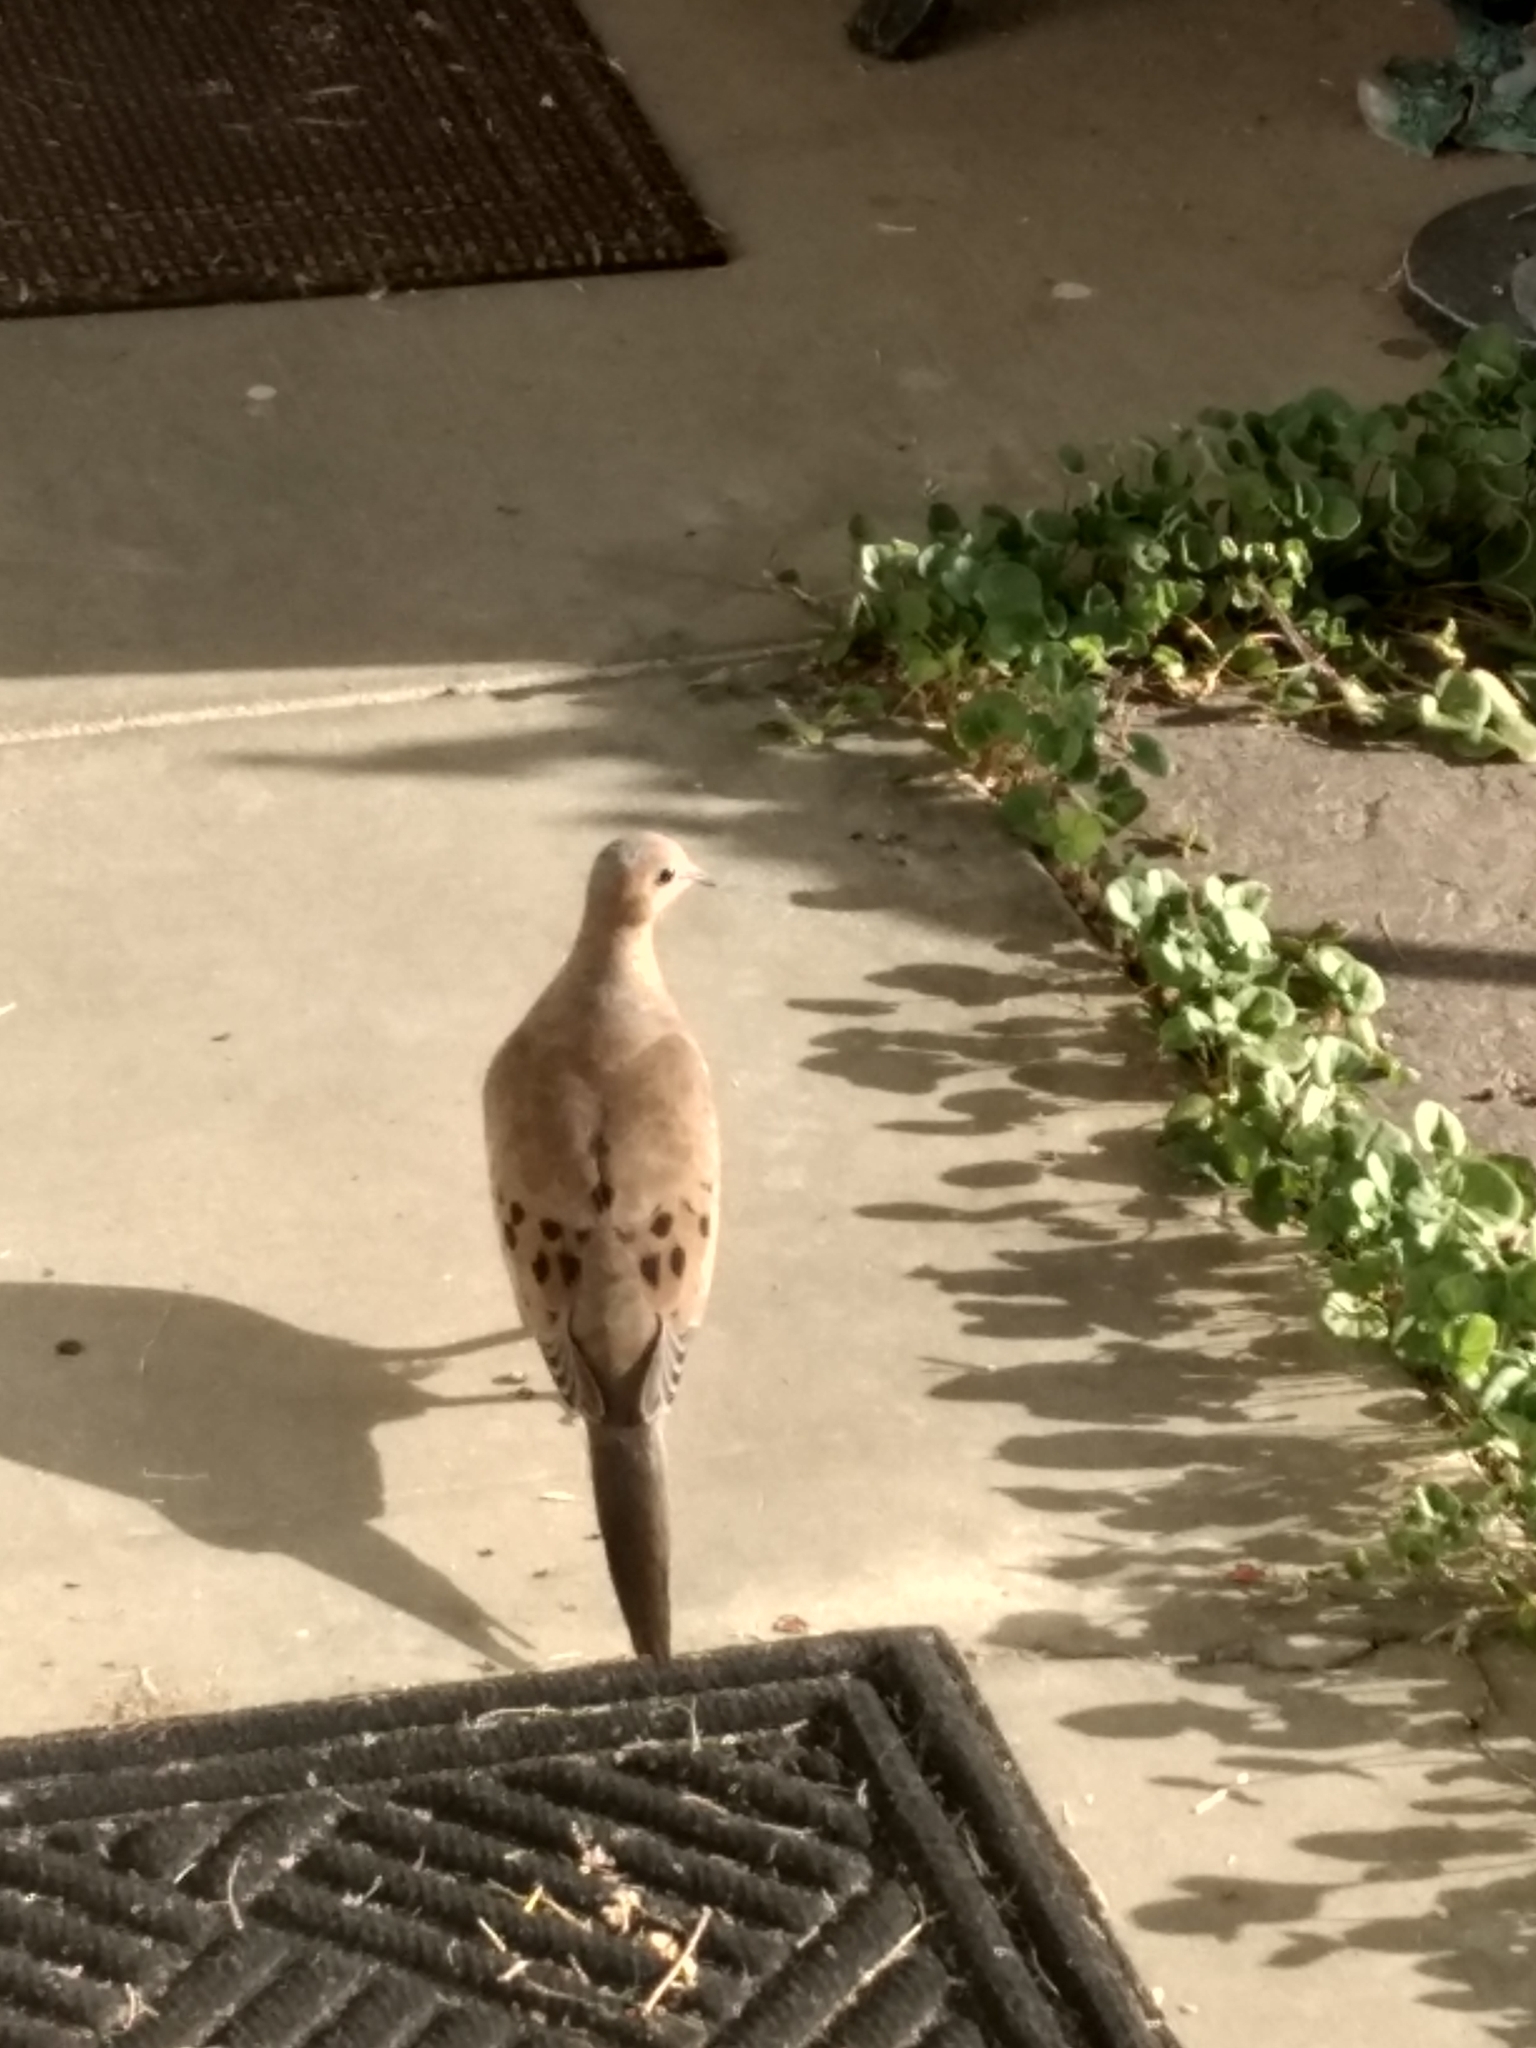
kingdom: Animalia
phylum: Chordata
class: Aves
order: Columbiformes
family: Columbidae
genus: Zenaida
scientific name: Zenaida macroura
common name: Mourning dove
